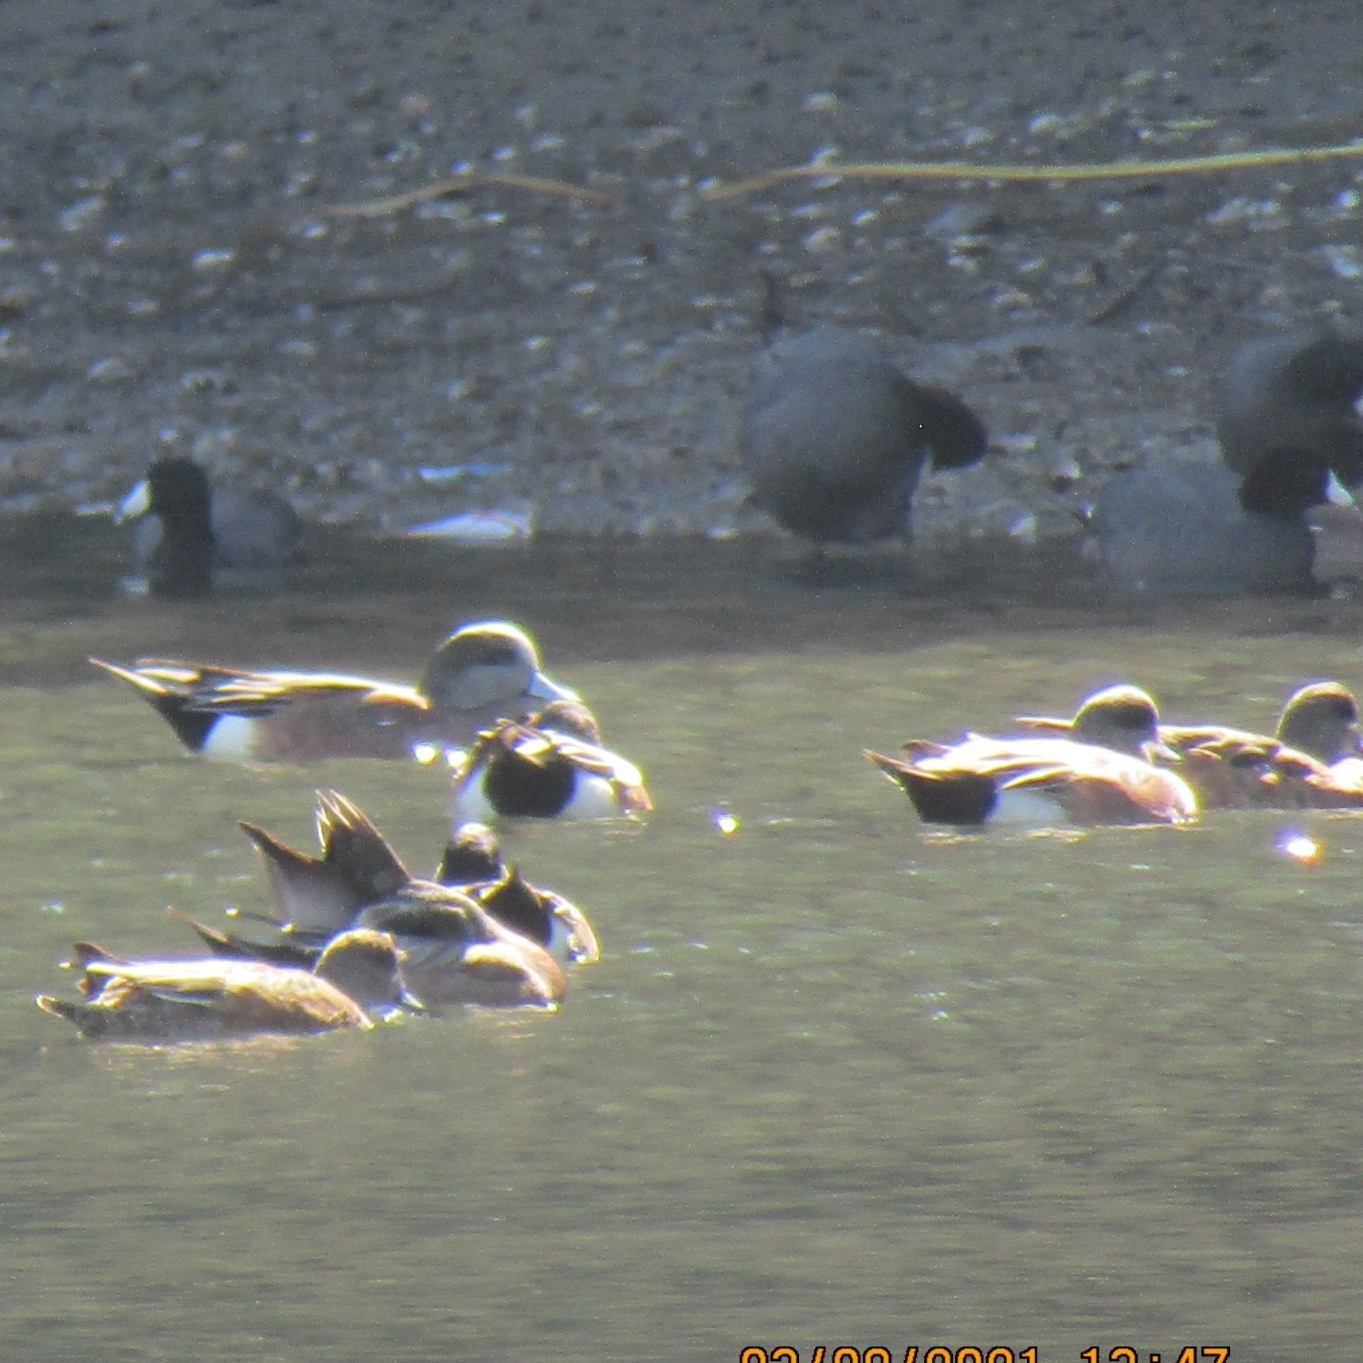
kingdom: Animalia
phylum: Chordata
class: Aves
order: Anseriformes
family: Anatidae
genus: Mareca
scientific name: Mareca americana
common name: American wigeon
